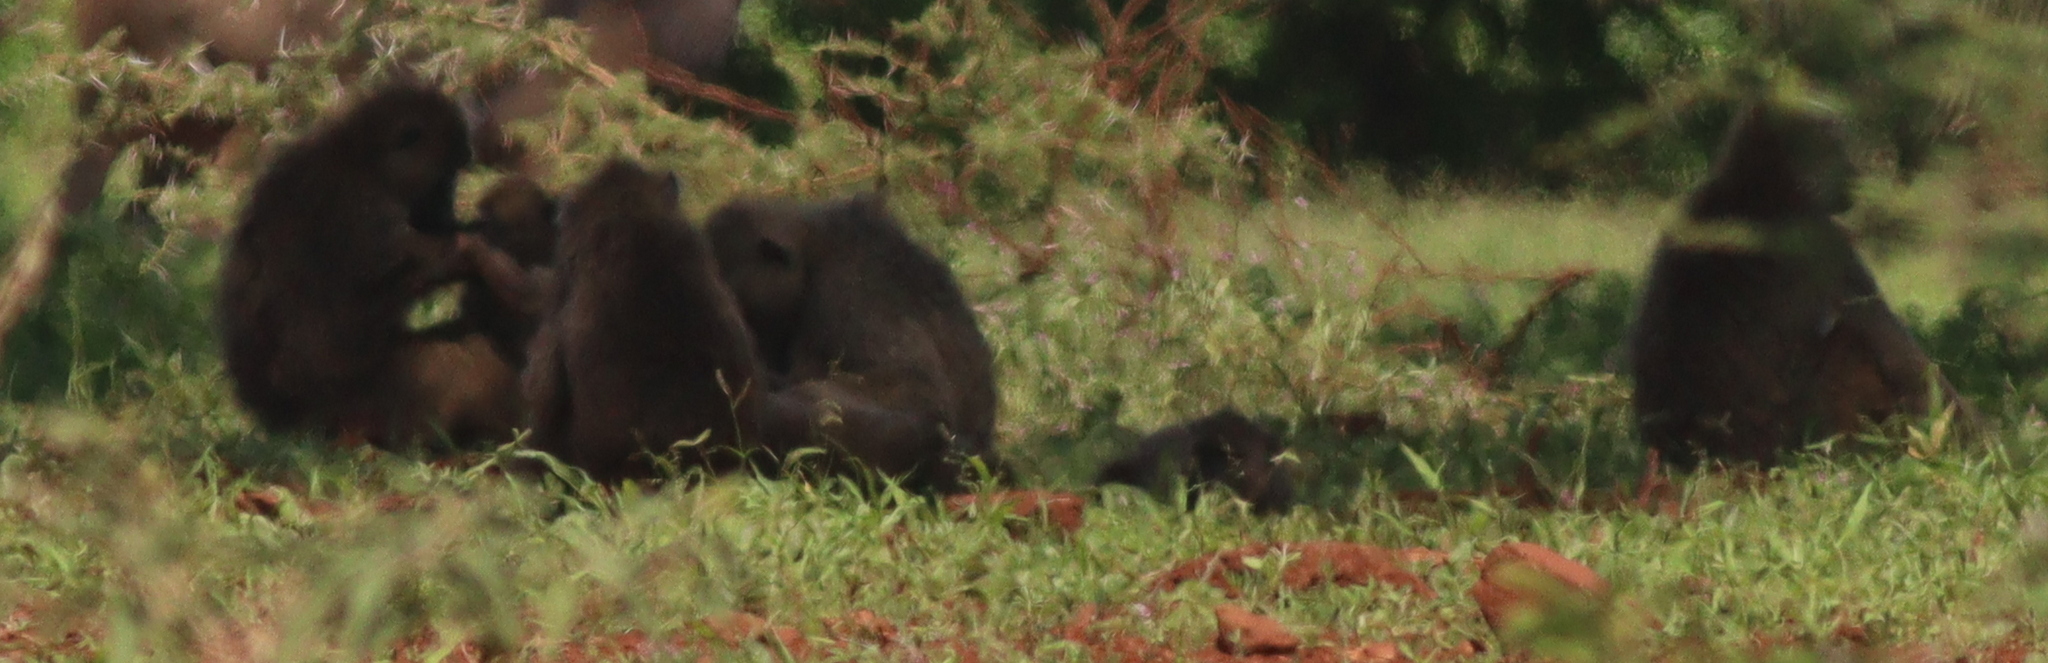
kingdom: Animalia
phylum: Chordata
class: Mammalia
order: Primates
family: Cercopithecidae
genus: Papio
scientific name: Papio anubis
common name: Olive baboon
